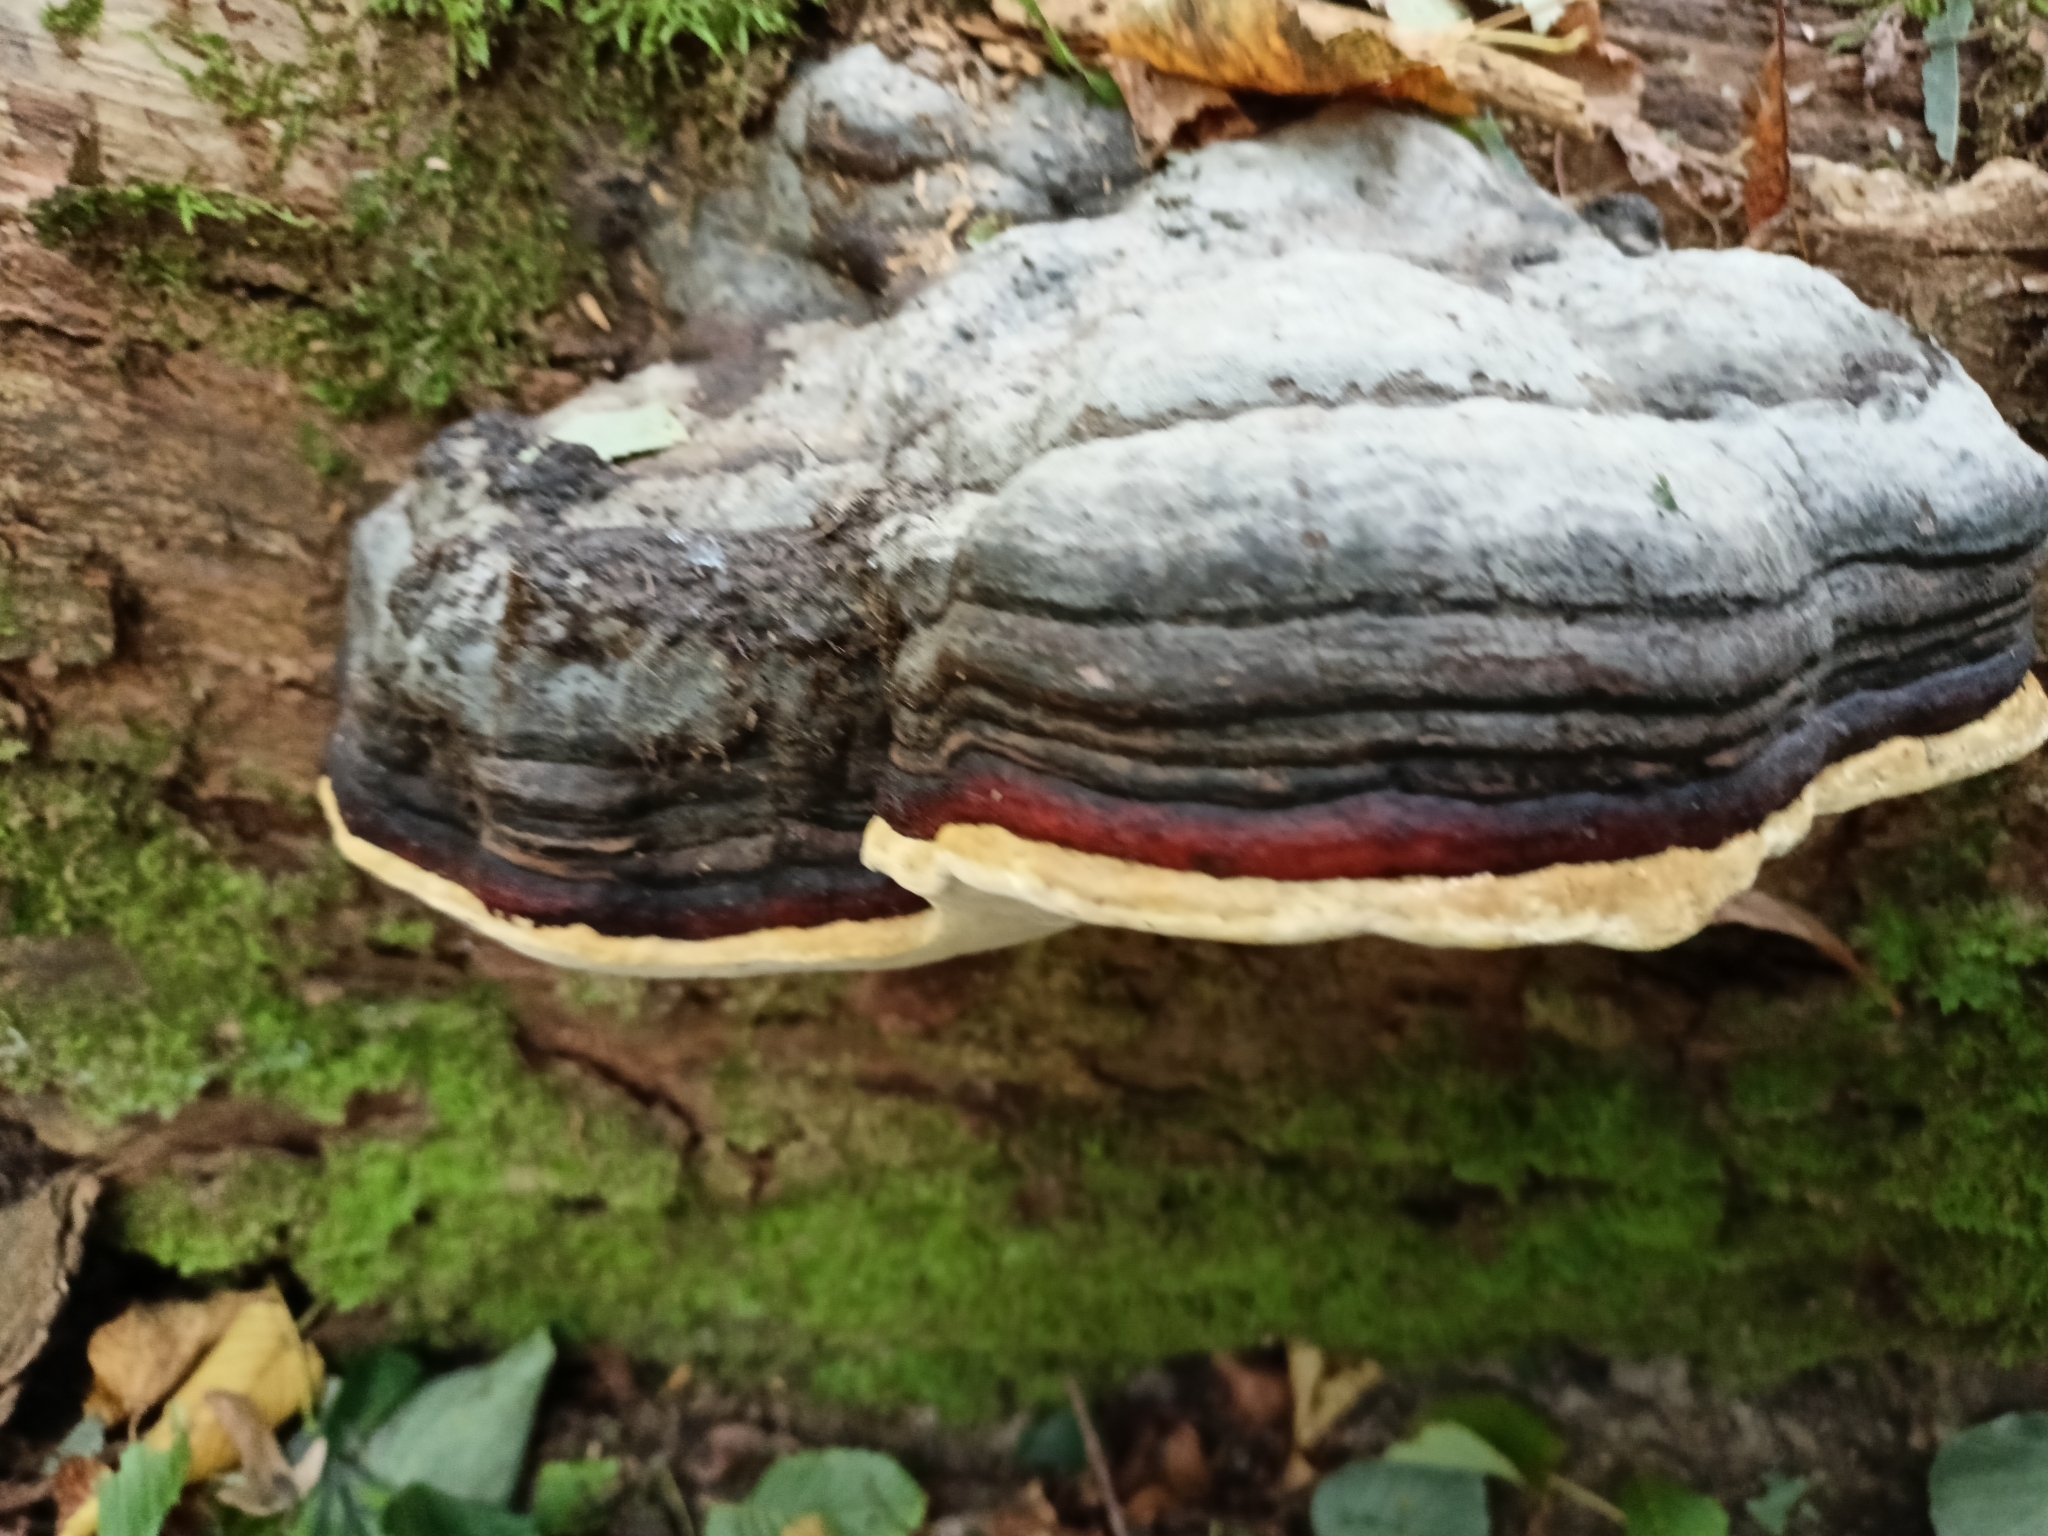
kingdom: Fungi
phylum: Basidiomycota
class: Agaricomycetes
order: Polyporales
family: Fomitopsidaceae
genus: Fomitopsis
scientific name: Fomitopsis pinicola
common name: Red-belted bracket
